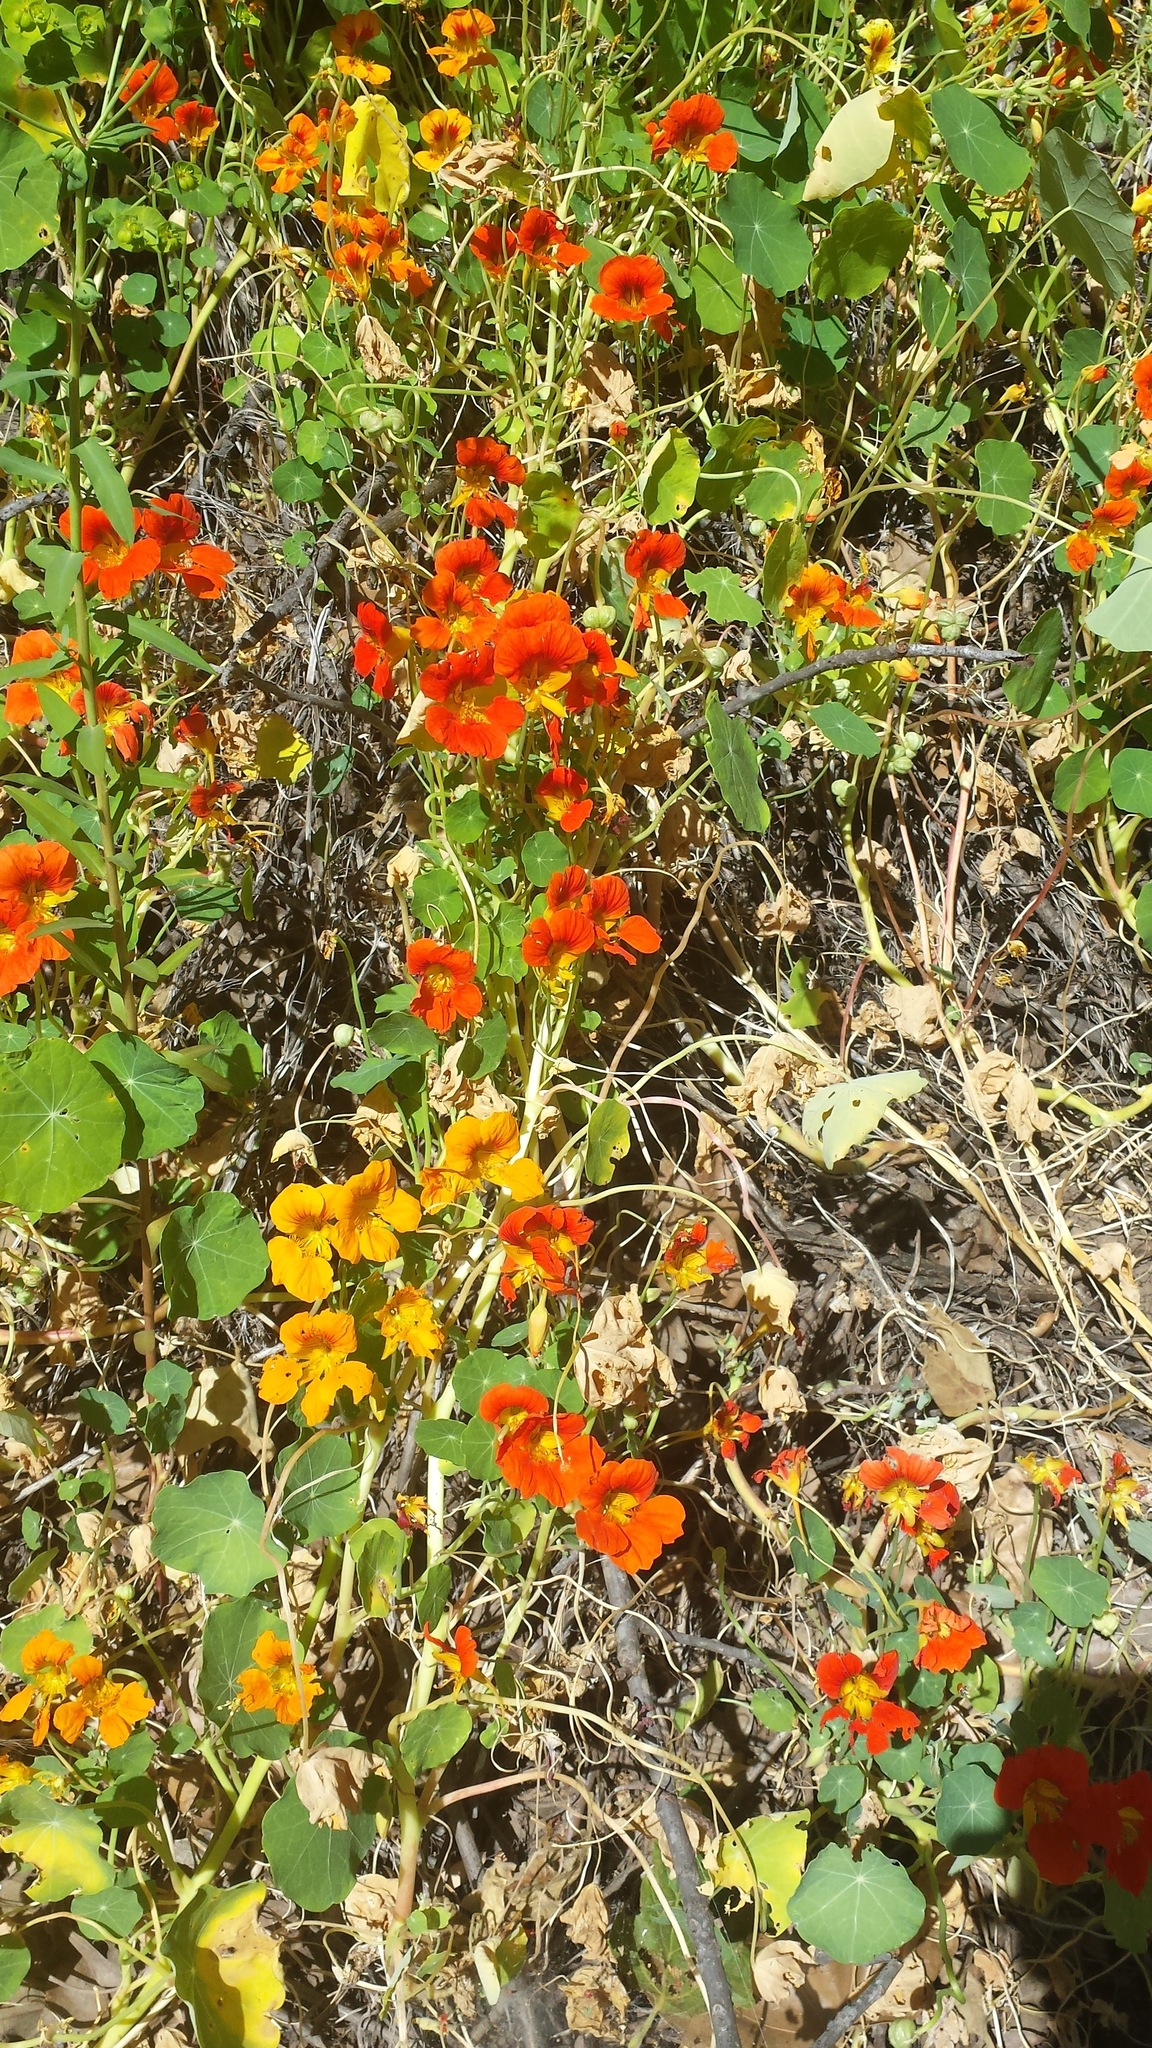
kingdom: Plantae
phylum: Tracheophyta
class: Magnoliopsida
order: Brassicales
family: Tropaeolaceae
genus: Tropaeolum
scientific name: Tropaeolum majus
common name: Nasturtium
